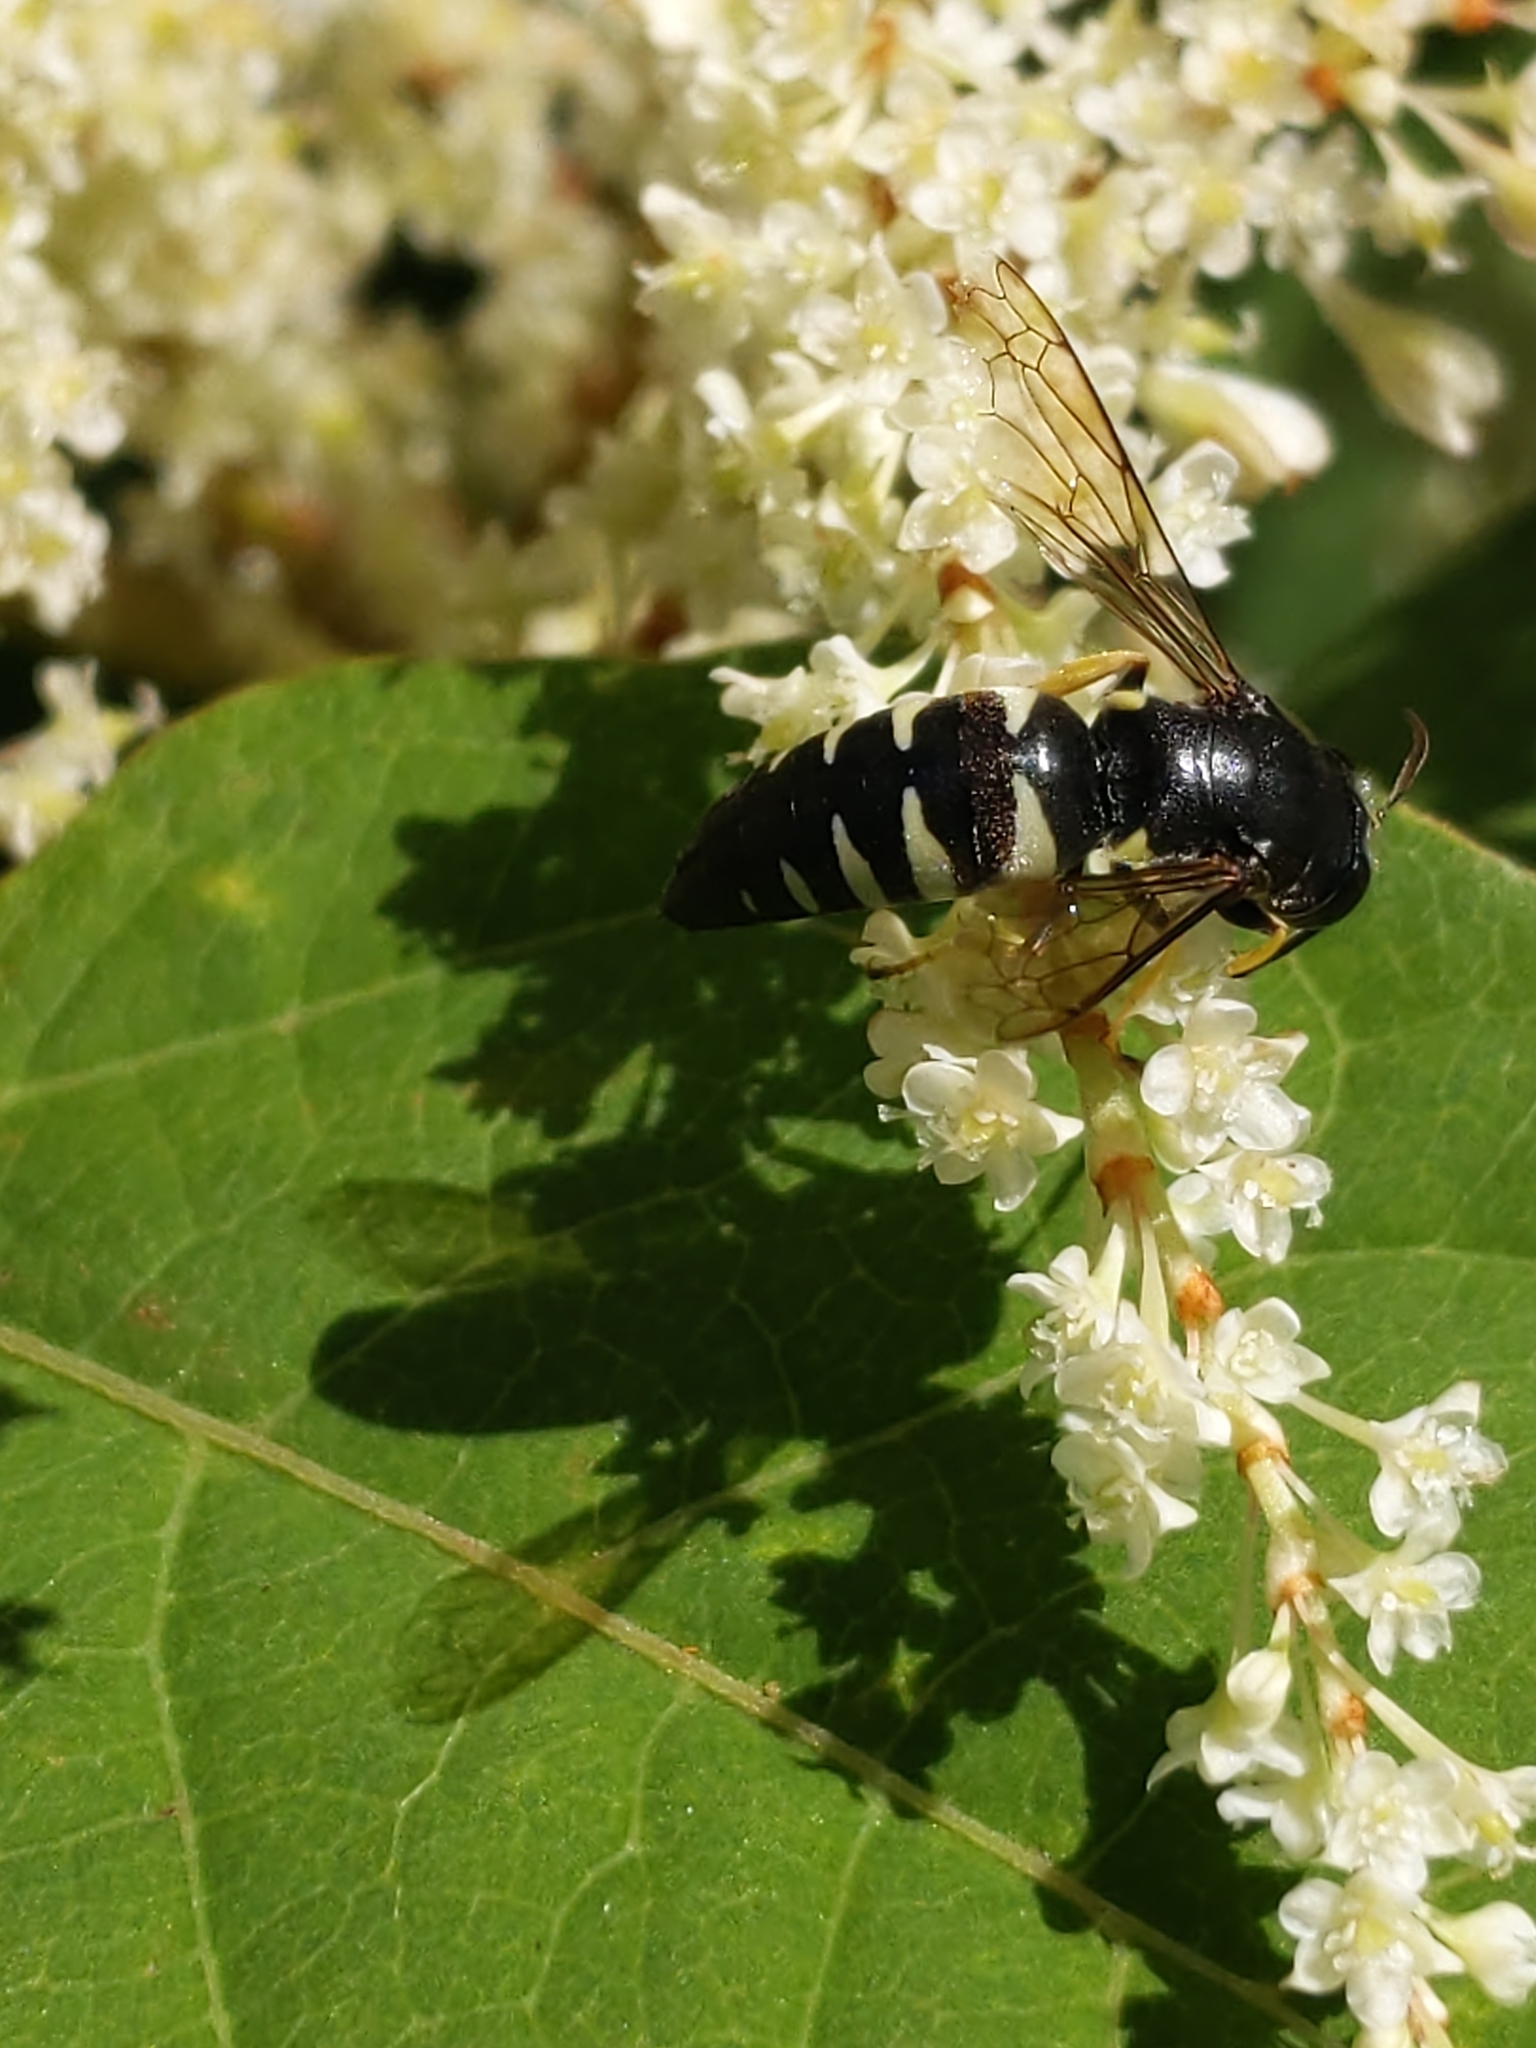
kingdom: Animalia
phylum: Arthropoda
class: Insecta
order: Hymenoptera
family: Crabronidae
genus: Bicyrtes
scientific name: Bicyrtes quadrifasciatus
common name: Four-banded stink bug hunter wasp
